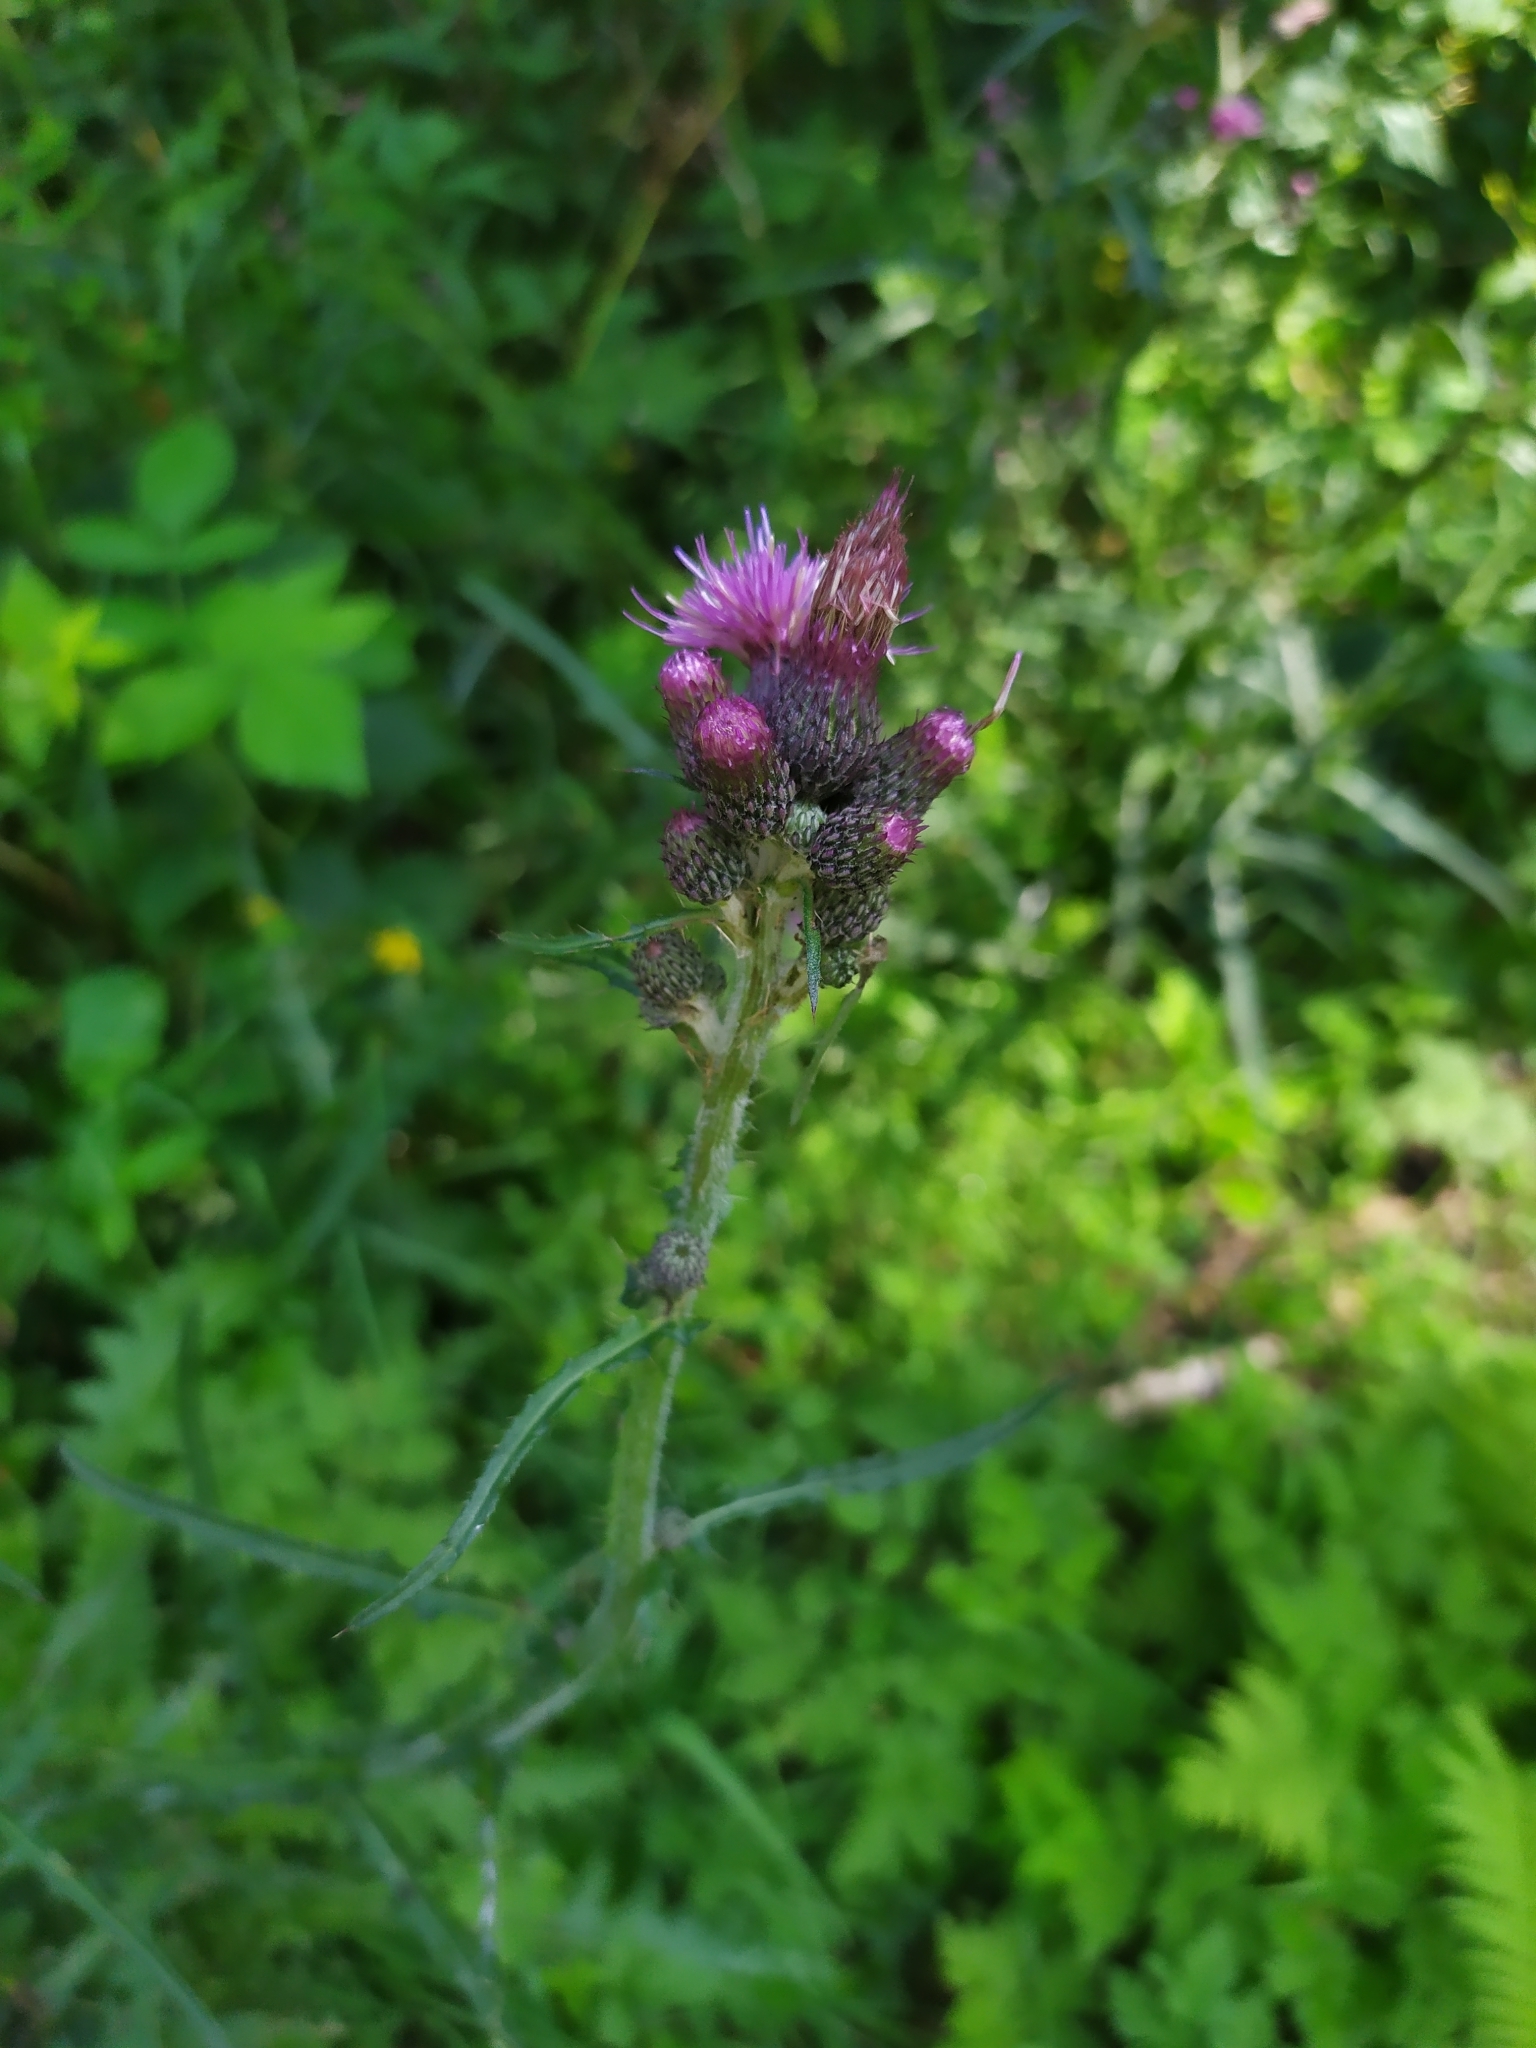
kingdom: Plantae
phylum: Tracheophyta
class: Magnoliopsida
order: Asterales
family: Asteraceae
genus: Cirsium
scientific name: Cirsium palustre
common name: Marsh thistle
